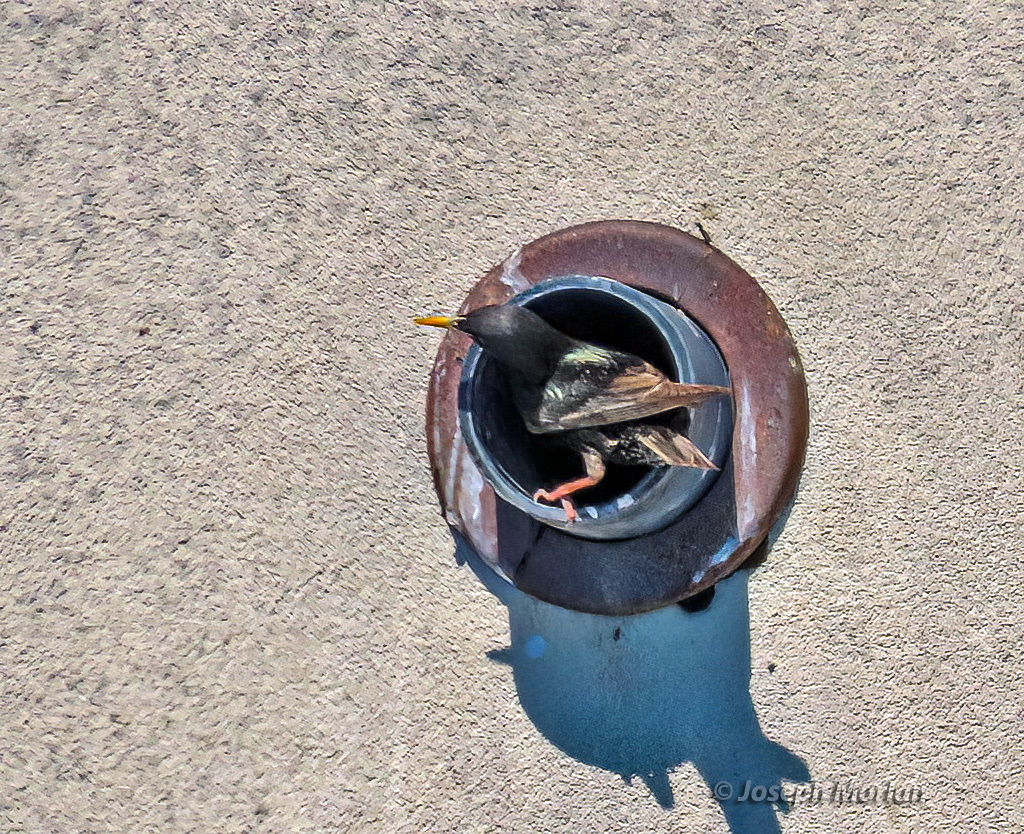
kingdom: Animalia
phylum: Chordata
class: Aves
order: Passeriformes
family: Sturnidae
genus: Sturnus
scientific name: Sturnus vulgaris
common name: Common starling
